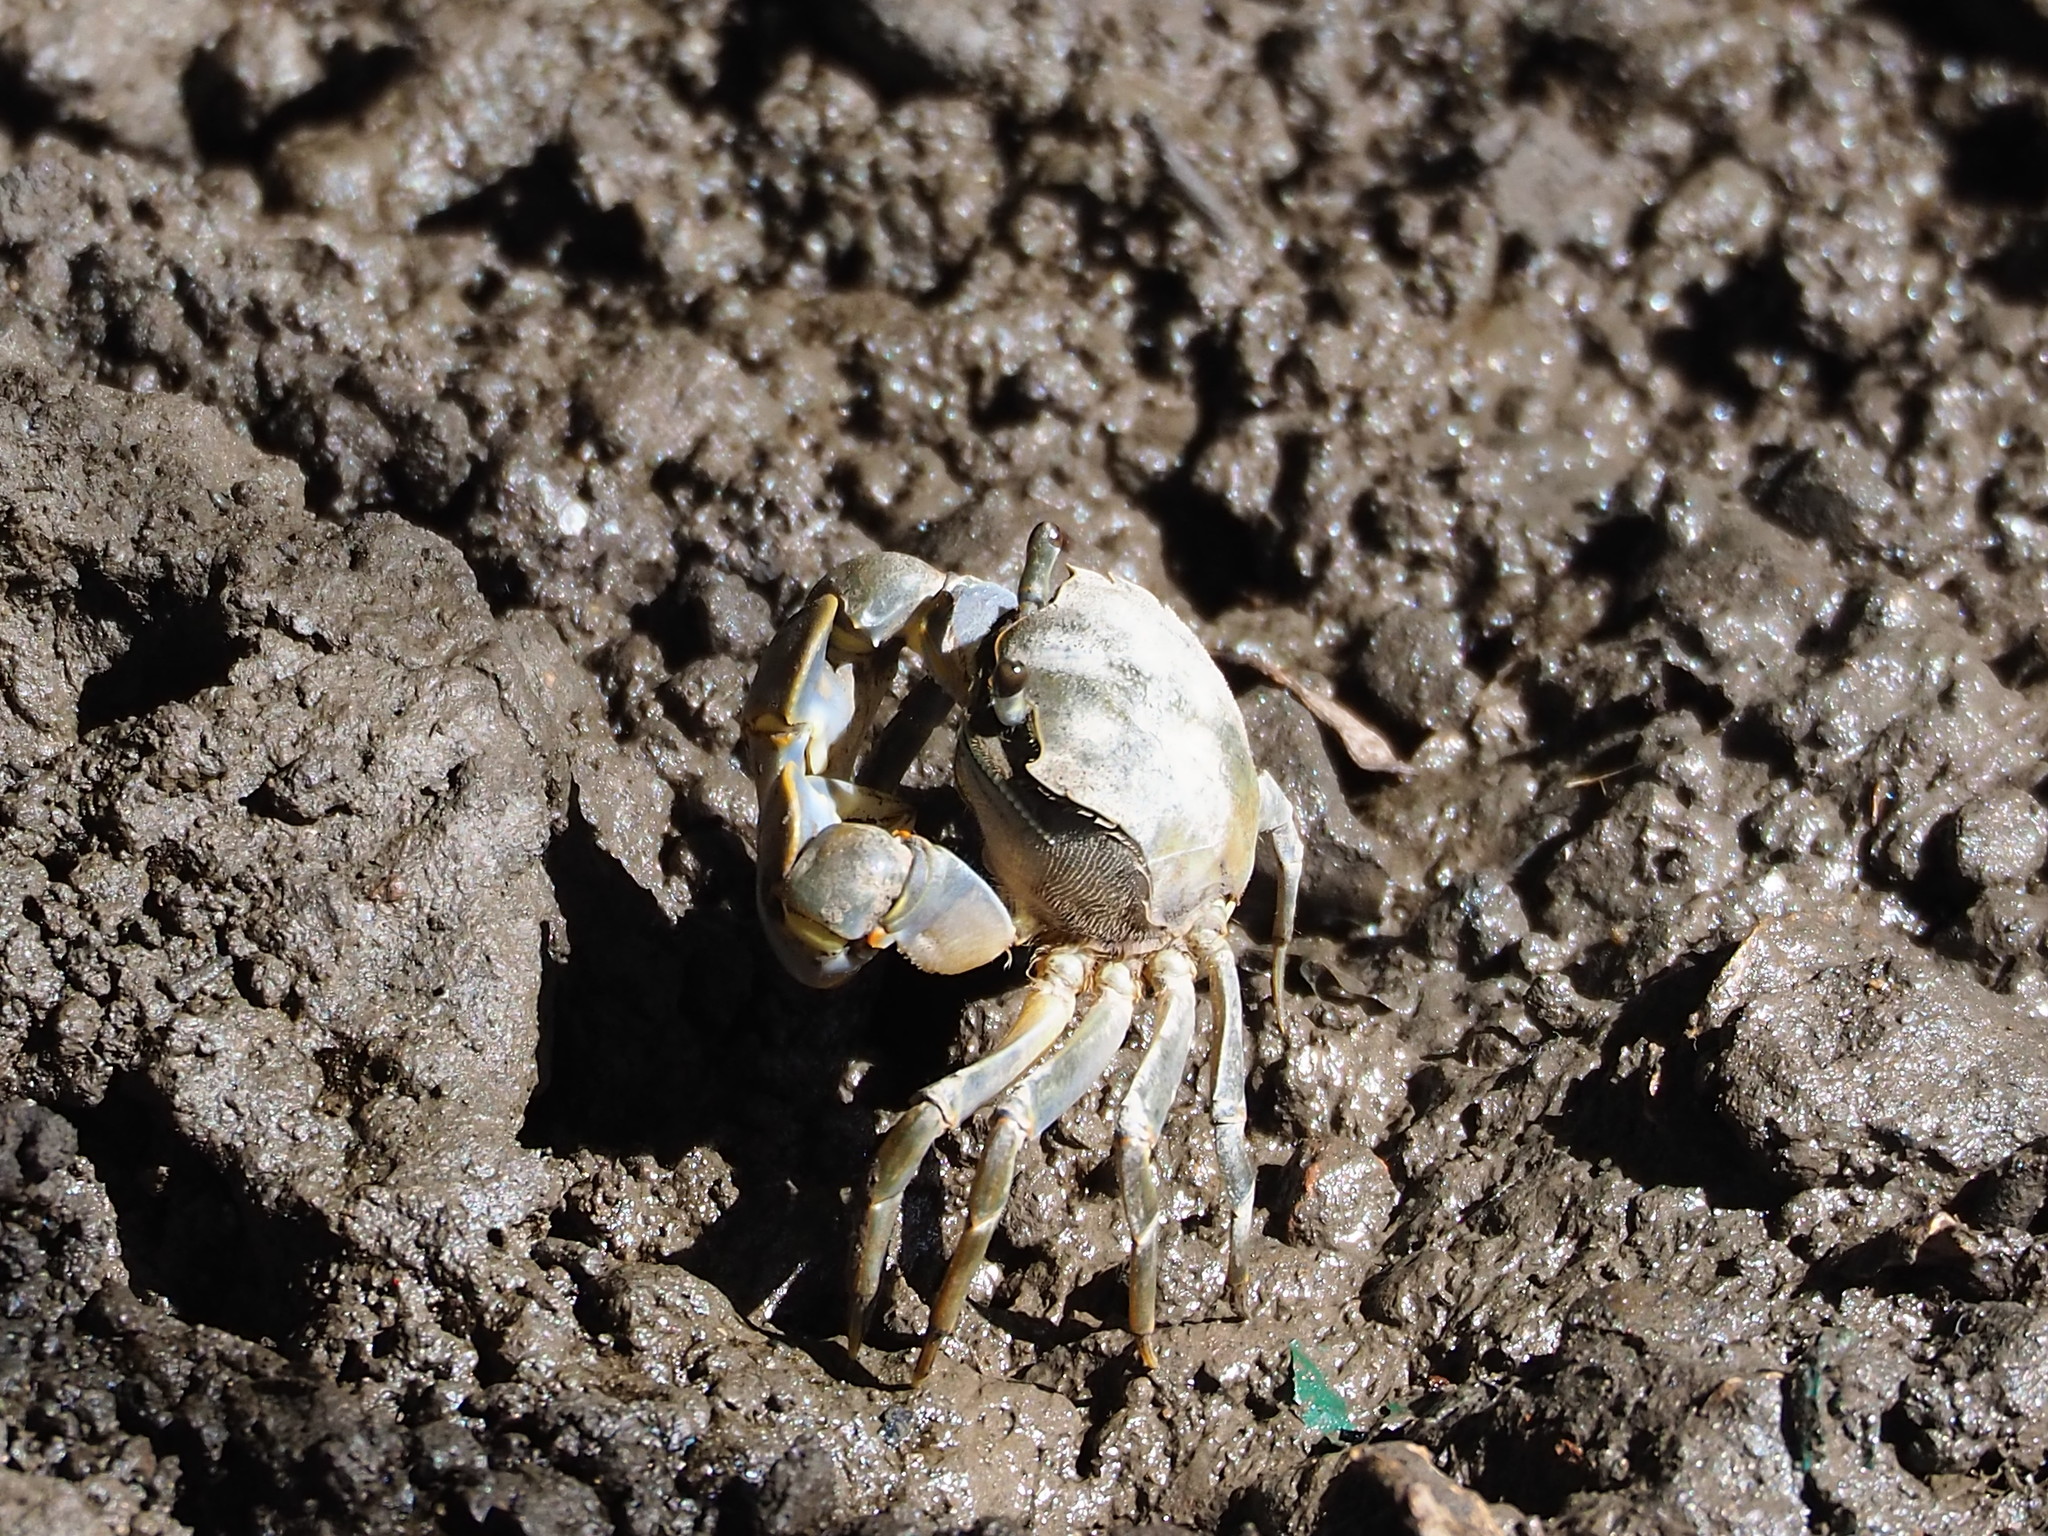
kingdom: Animalia
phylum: Arthropoda
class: Malacostraca
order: Decapoda
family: Varunidae
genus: Helice
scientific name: Helice formosensis
